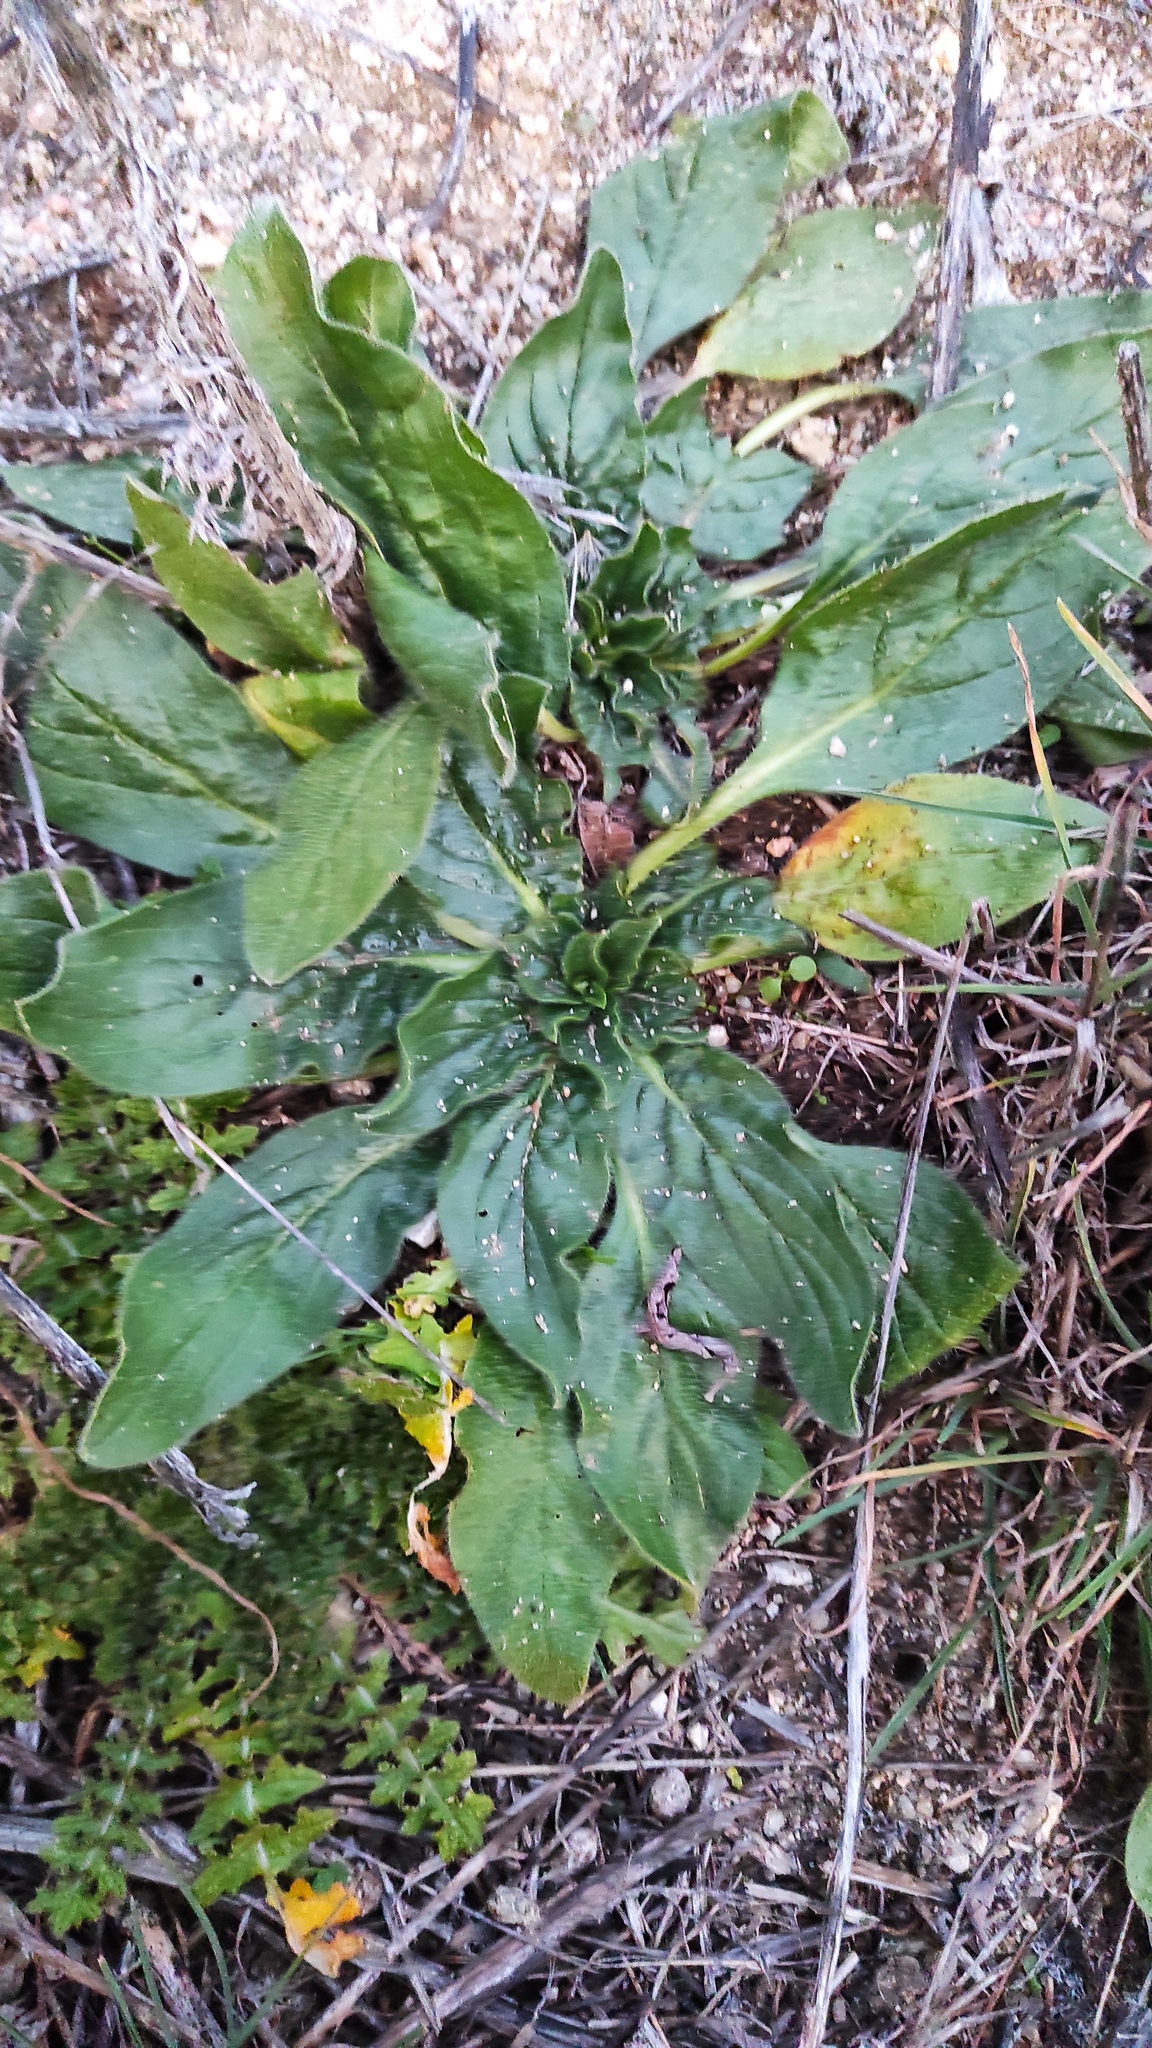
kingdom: Plantae
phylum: Tracheophyta
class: Magnoliopsida
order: Boraginales
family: Boraginaceae
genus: Echium
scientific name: Echium plantagineum
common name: Purple viper's-bugloss
